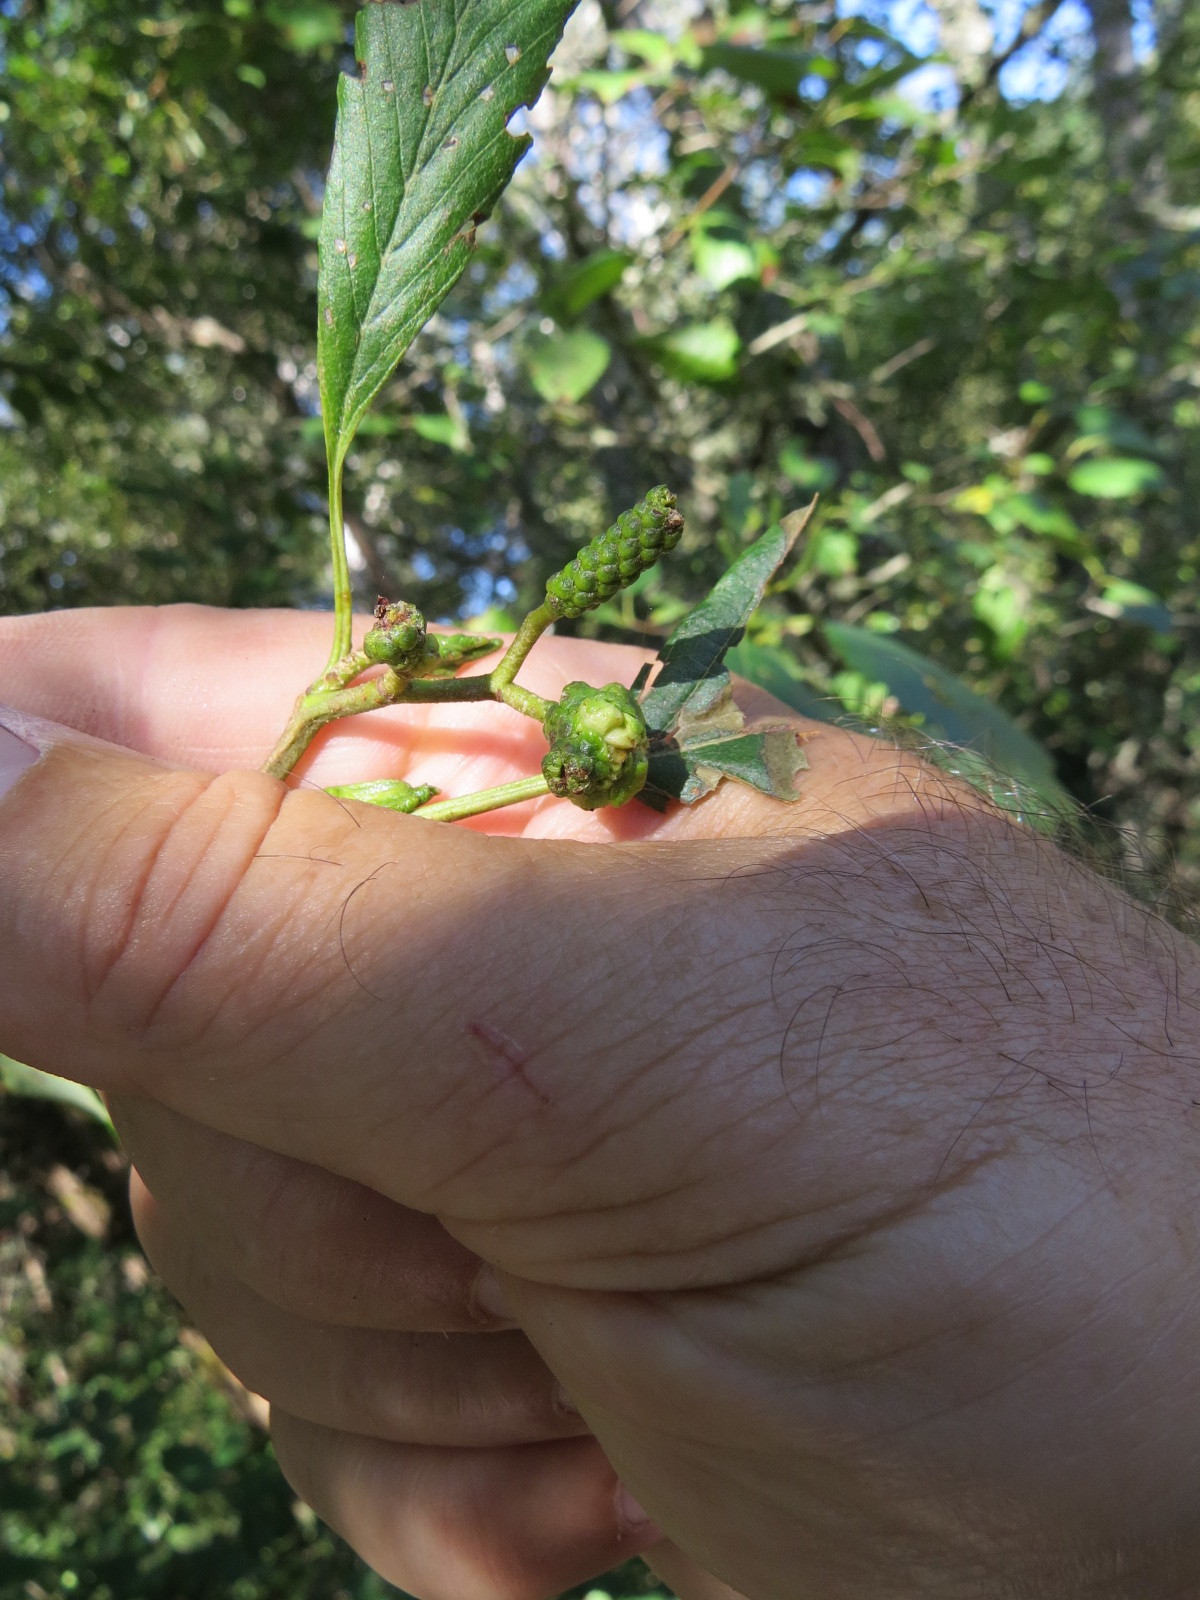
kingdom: Animalia
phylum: Arthropoda
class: Insecta
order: Diptera
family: Cecidomyiidae
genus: Dasineura
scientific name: Dasineura
